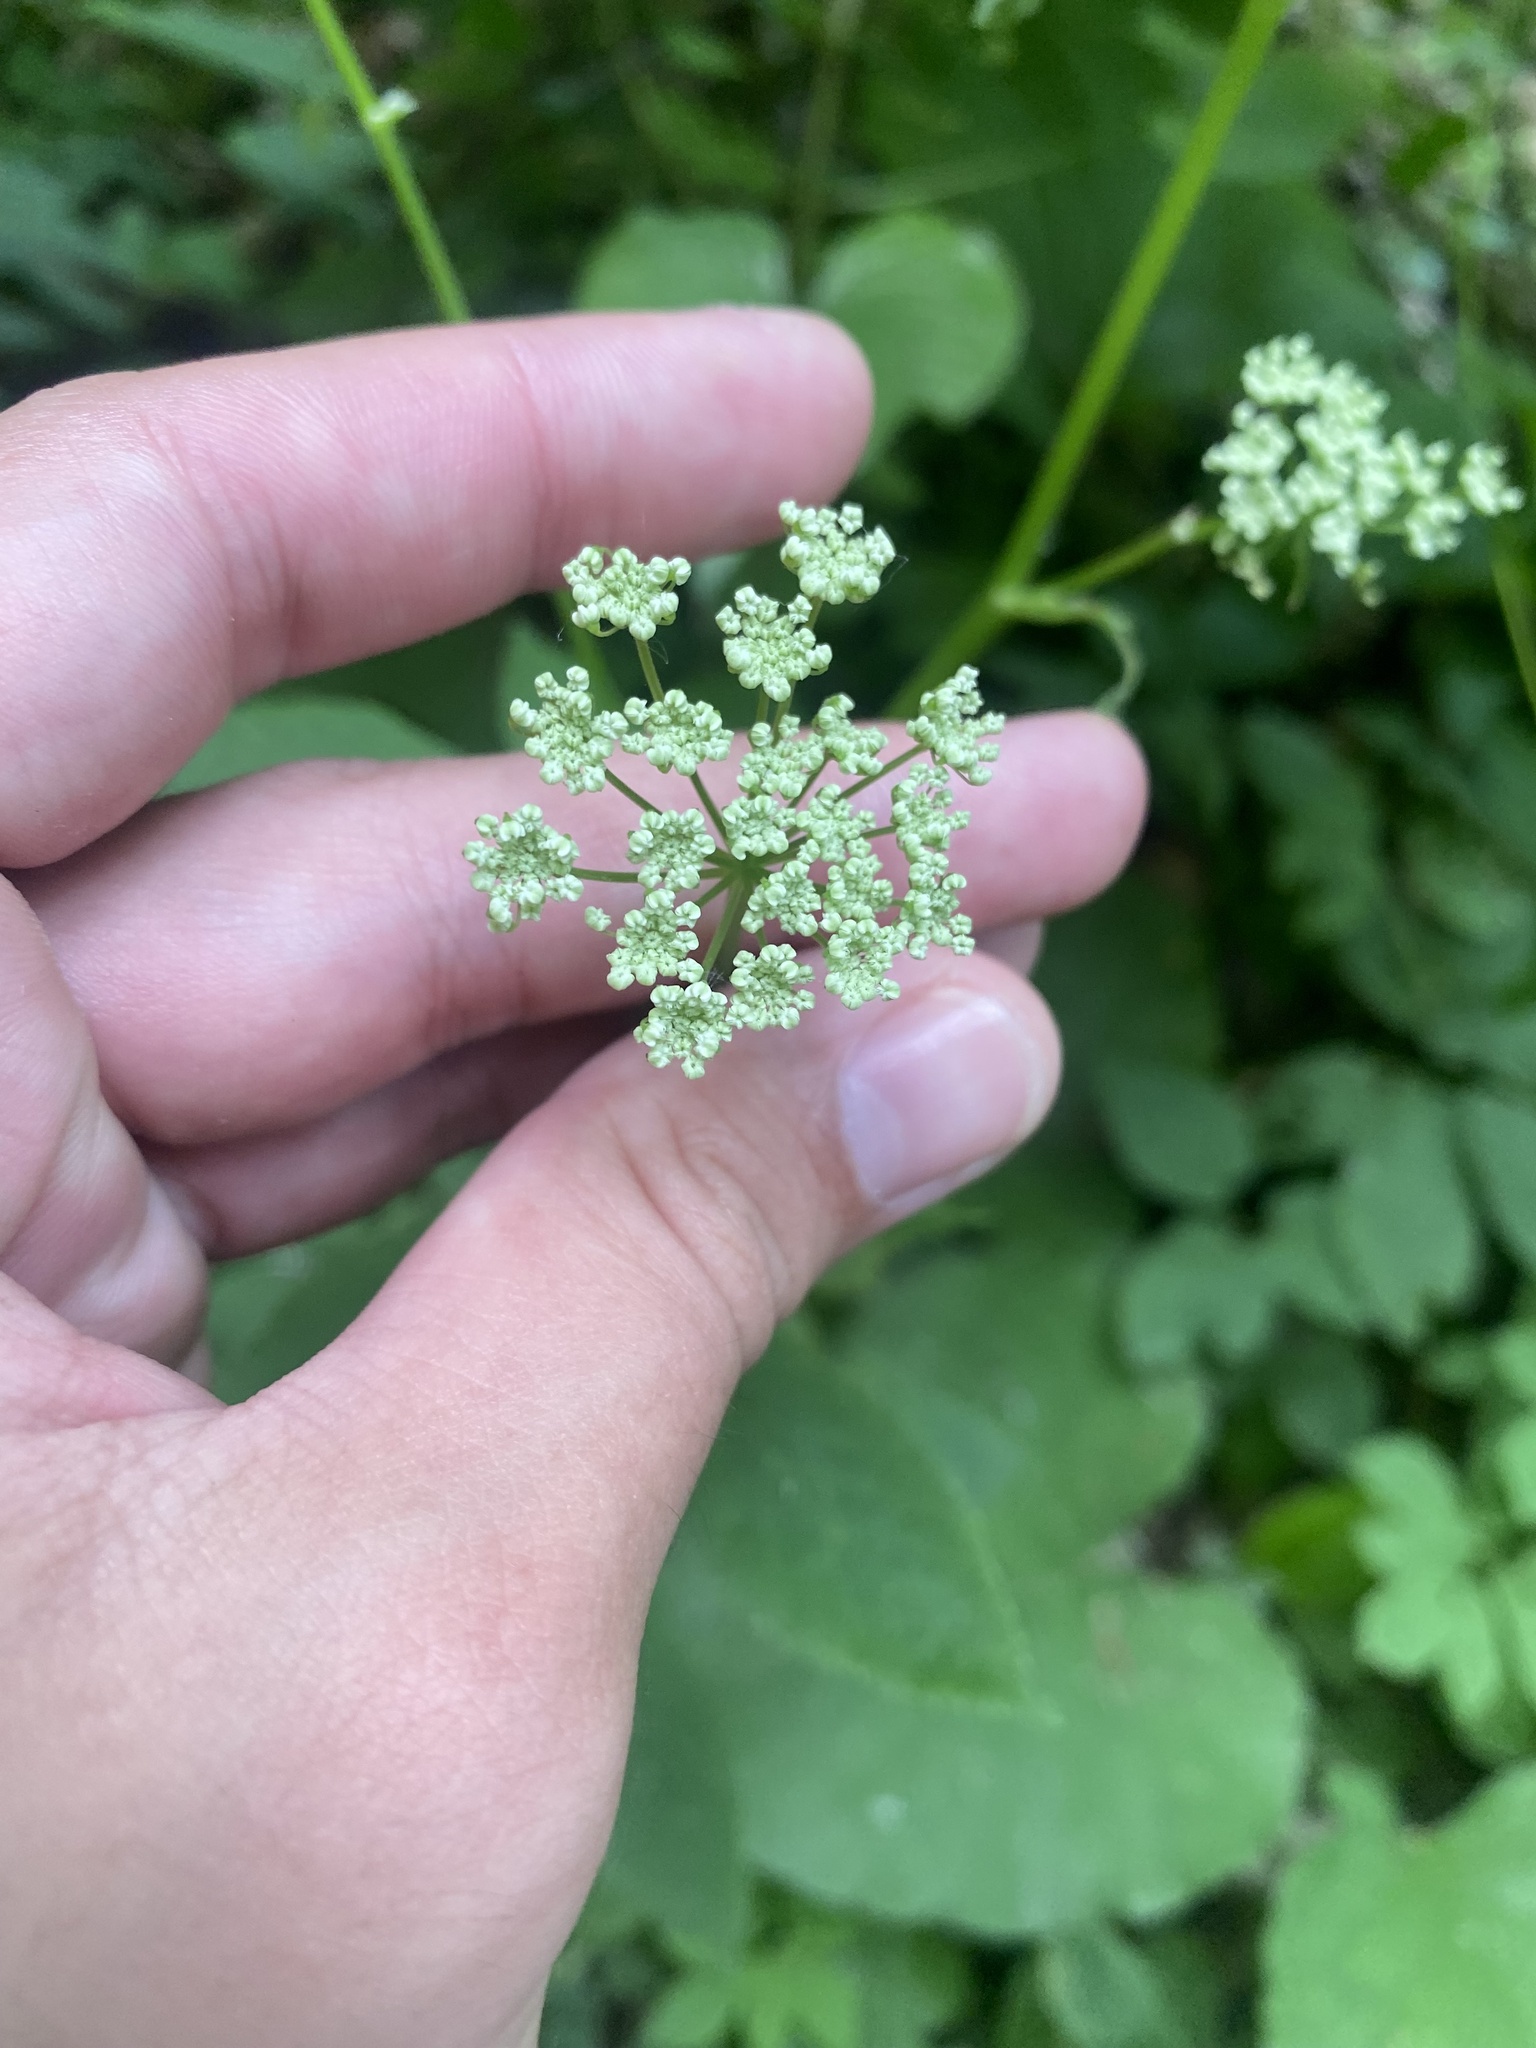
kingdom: Plantae
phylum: Tracheophyta
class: Magnoliopsida
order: Apiales
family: Apiaceae
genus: Aegopodium
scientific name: Aegopodium podagraria
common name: Ground-elder
